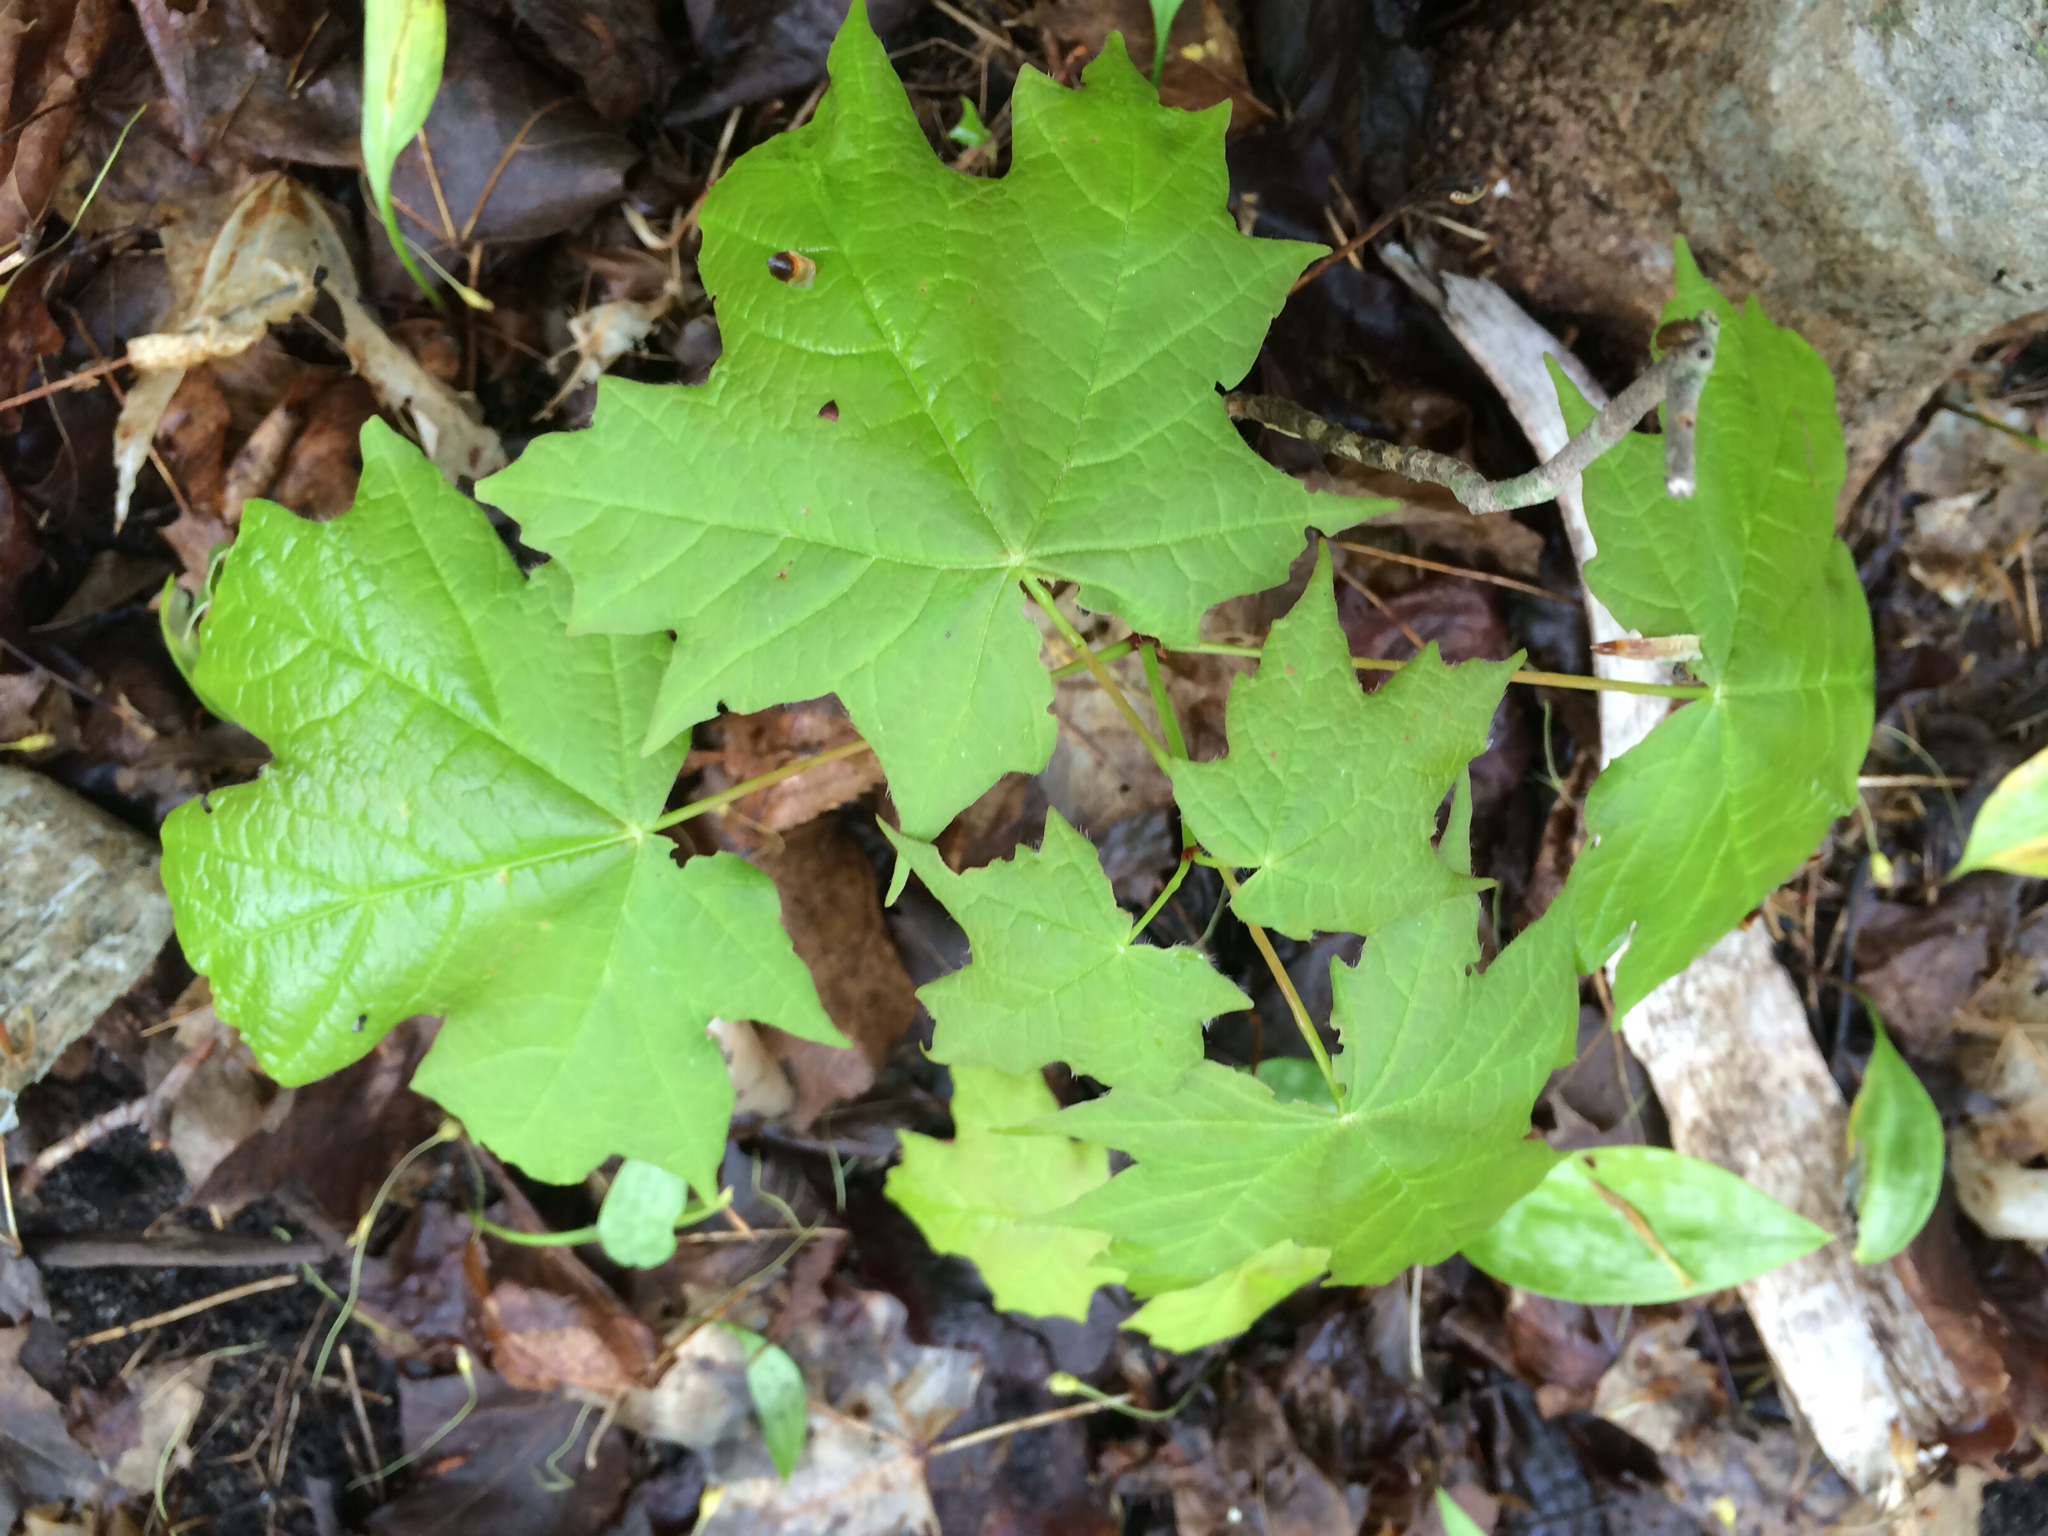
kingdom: Plantae
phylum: Tracheophyta
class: Magnoliopsida
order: Sapindales
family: Sapindaceae
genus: Acer
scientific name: Acer saccharum
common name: Sugar maple
